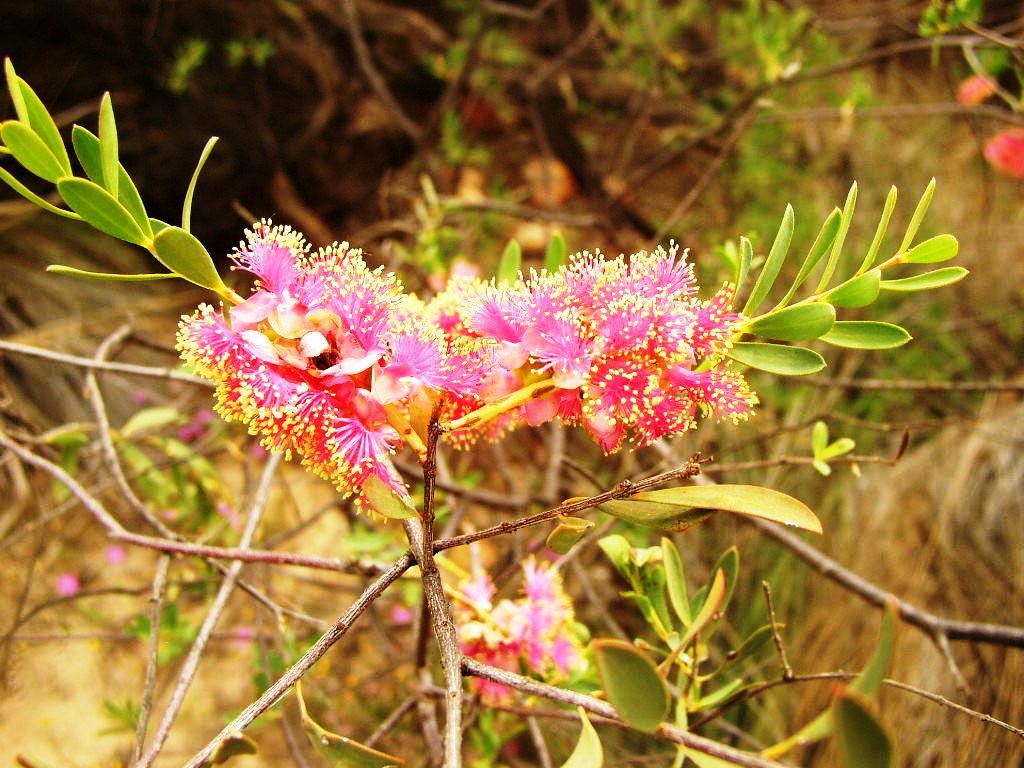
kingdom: Plantae
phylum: Tracheophyta
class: Magnoliopsida
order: Myrtales
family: Myrtaceae
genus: Melaleuca
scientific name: Melaleuca nesophila
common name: Mauve honey myrtle
